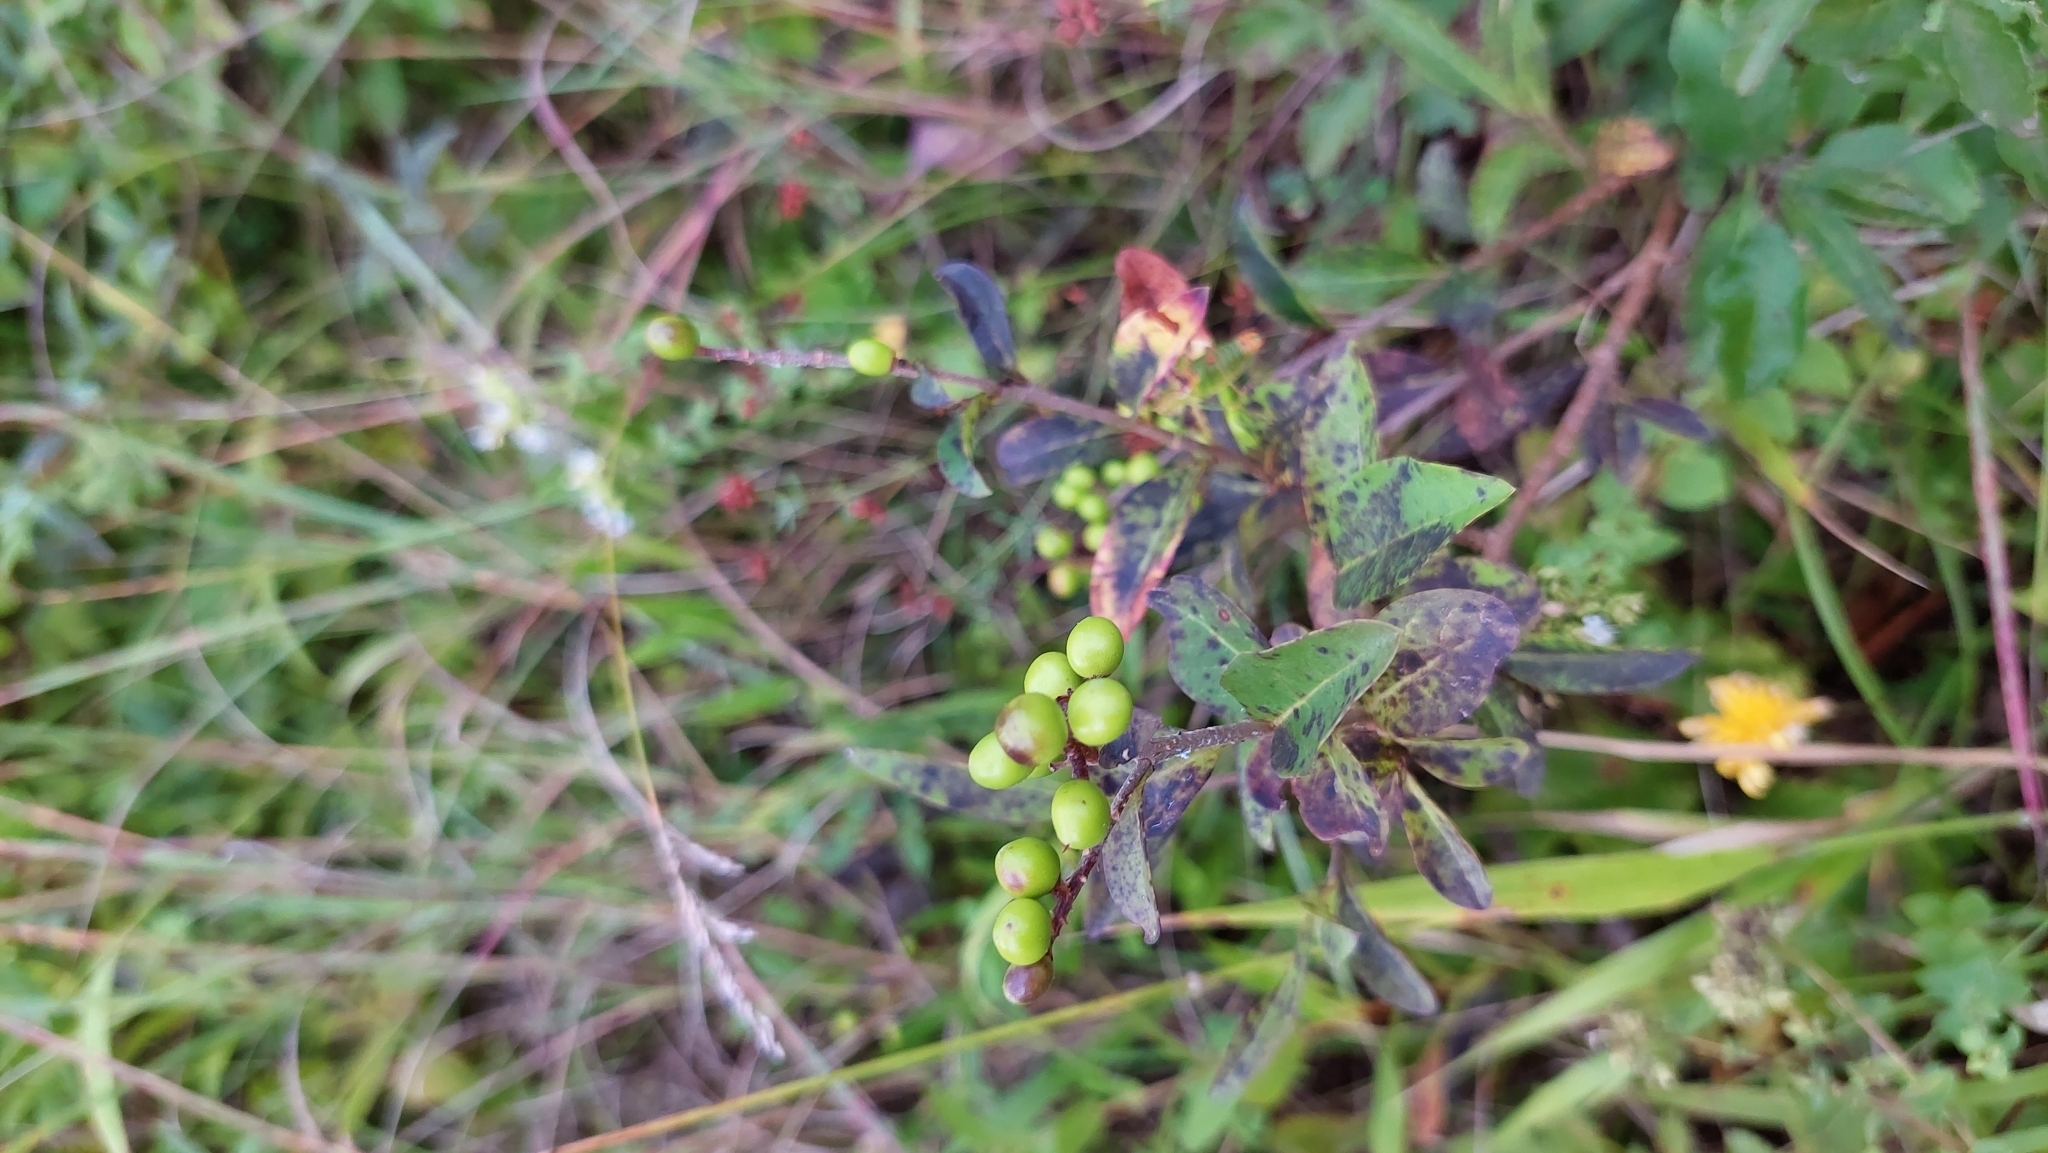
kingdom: Plantae
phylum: Tracheophyta
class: Magnoliopsida
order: Lamiales
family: Oleaceae
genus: Ligustrum
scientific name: Ligustrum vulgare
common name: Wild privet
